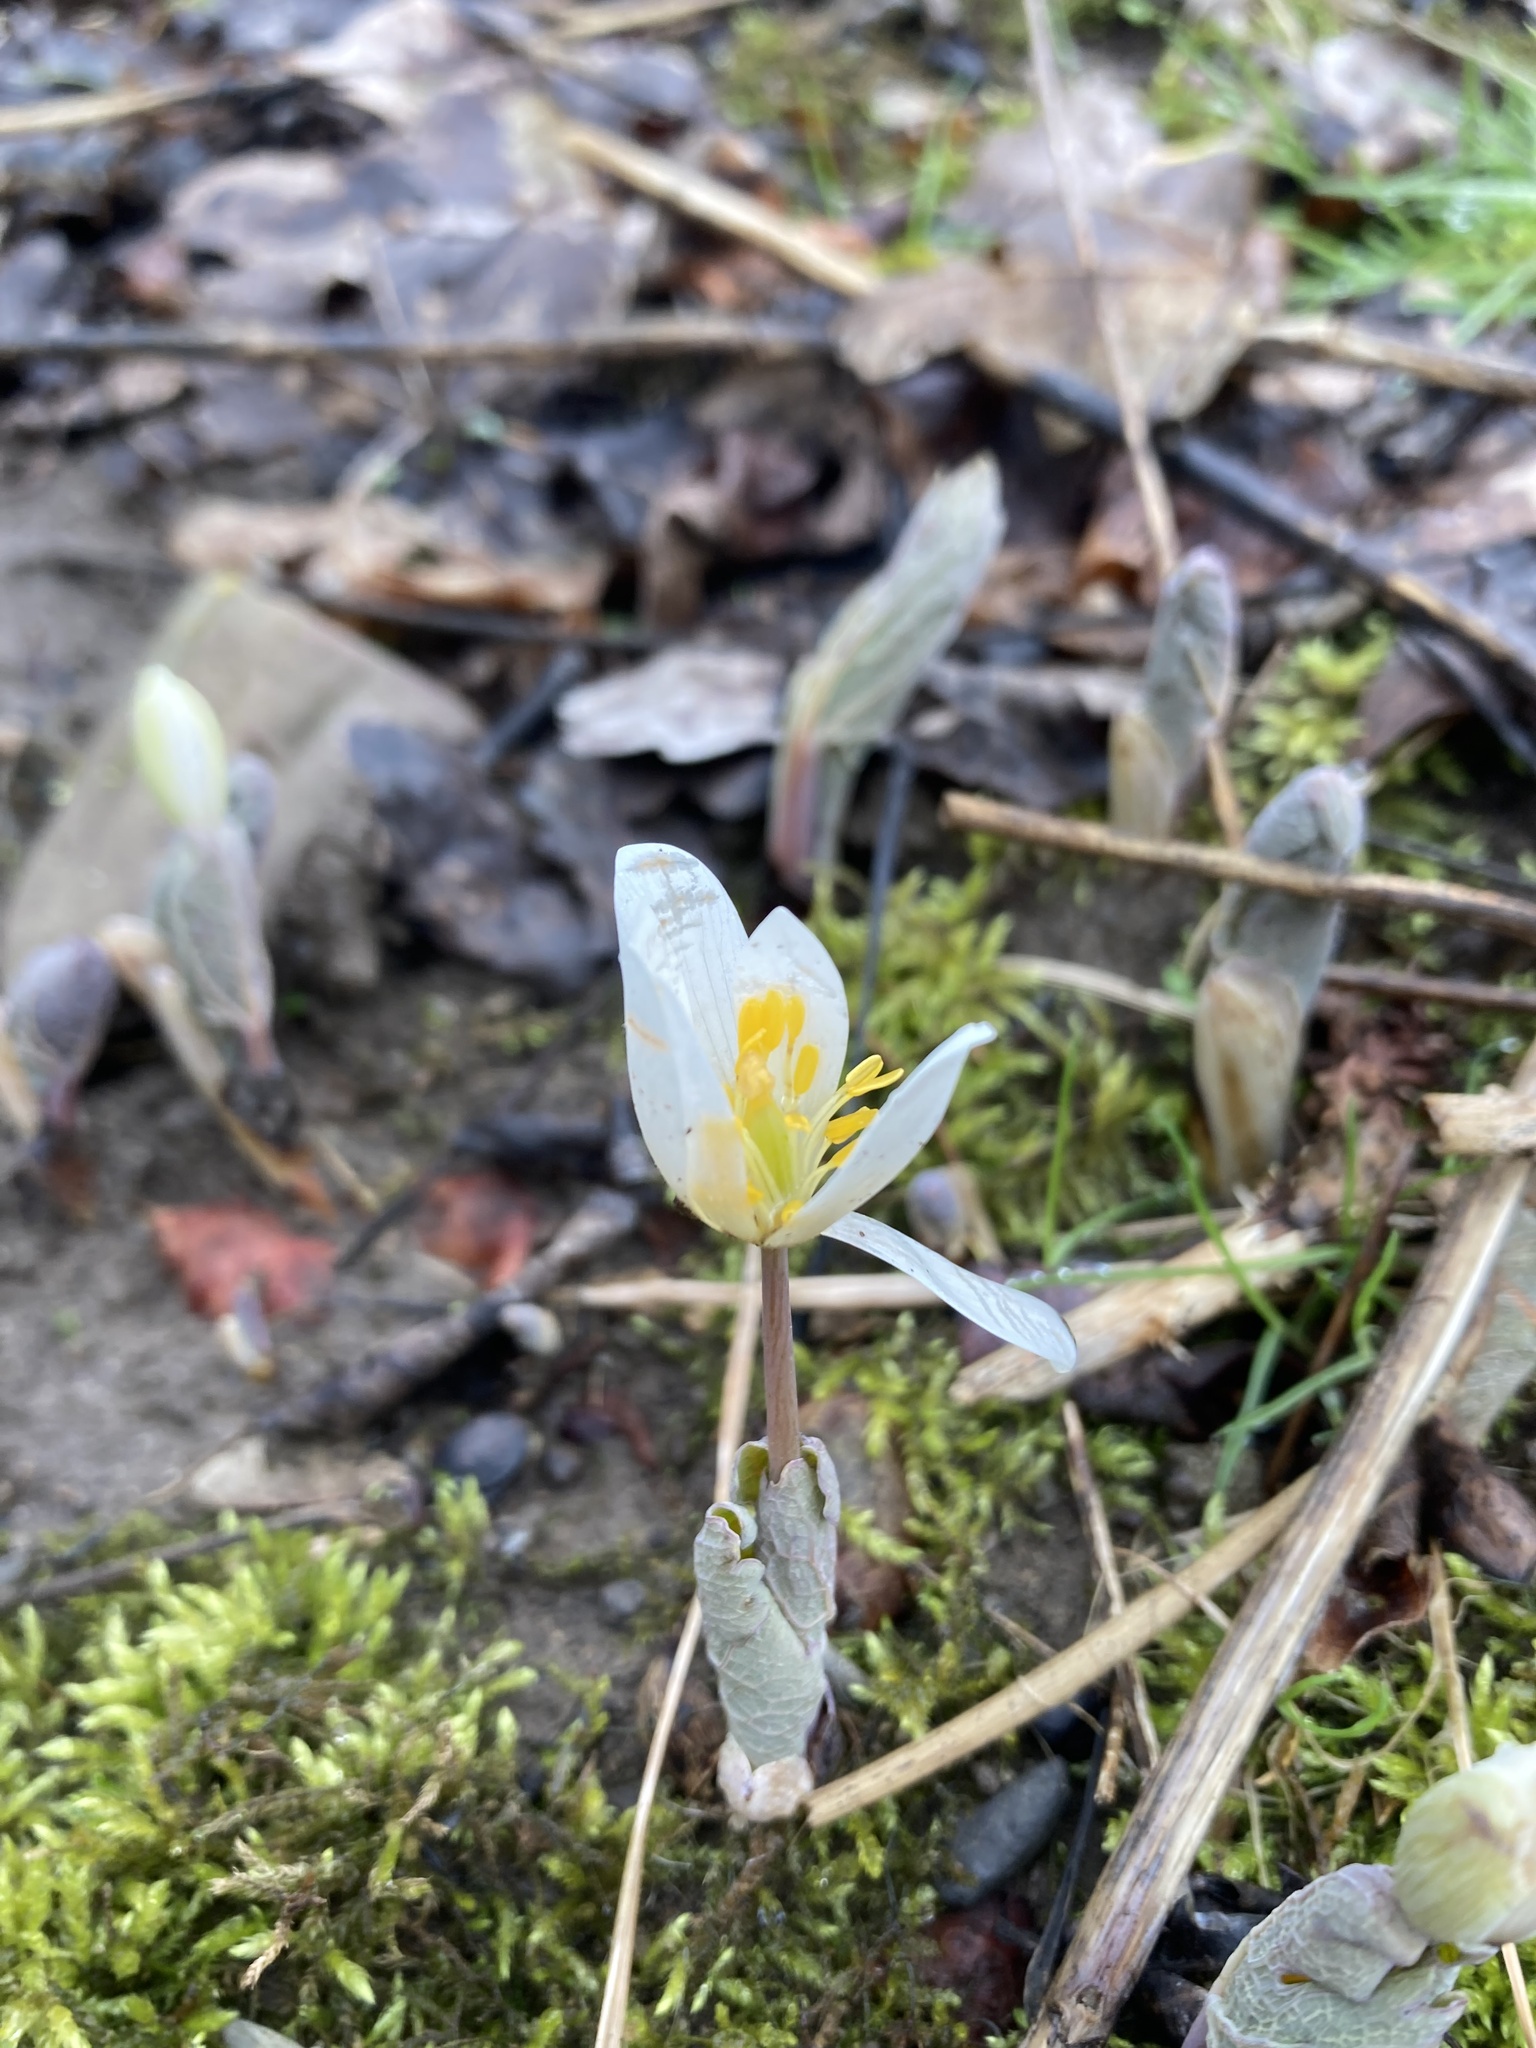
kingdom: Plantae
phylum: Tracheophyta
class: Magnoliopsida
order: Ranunculales
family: Papaveraceae
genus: Sanguinaria
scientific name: Sanguinaria canadensis
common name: Bloodroot
